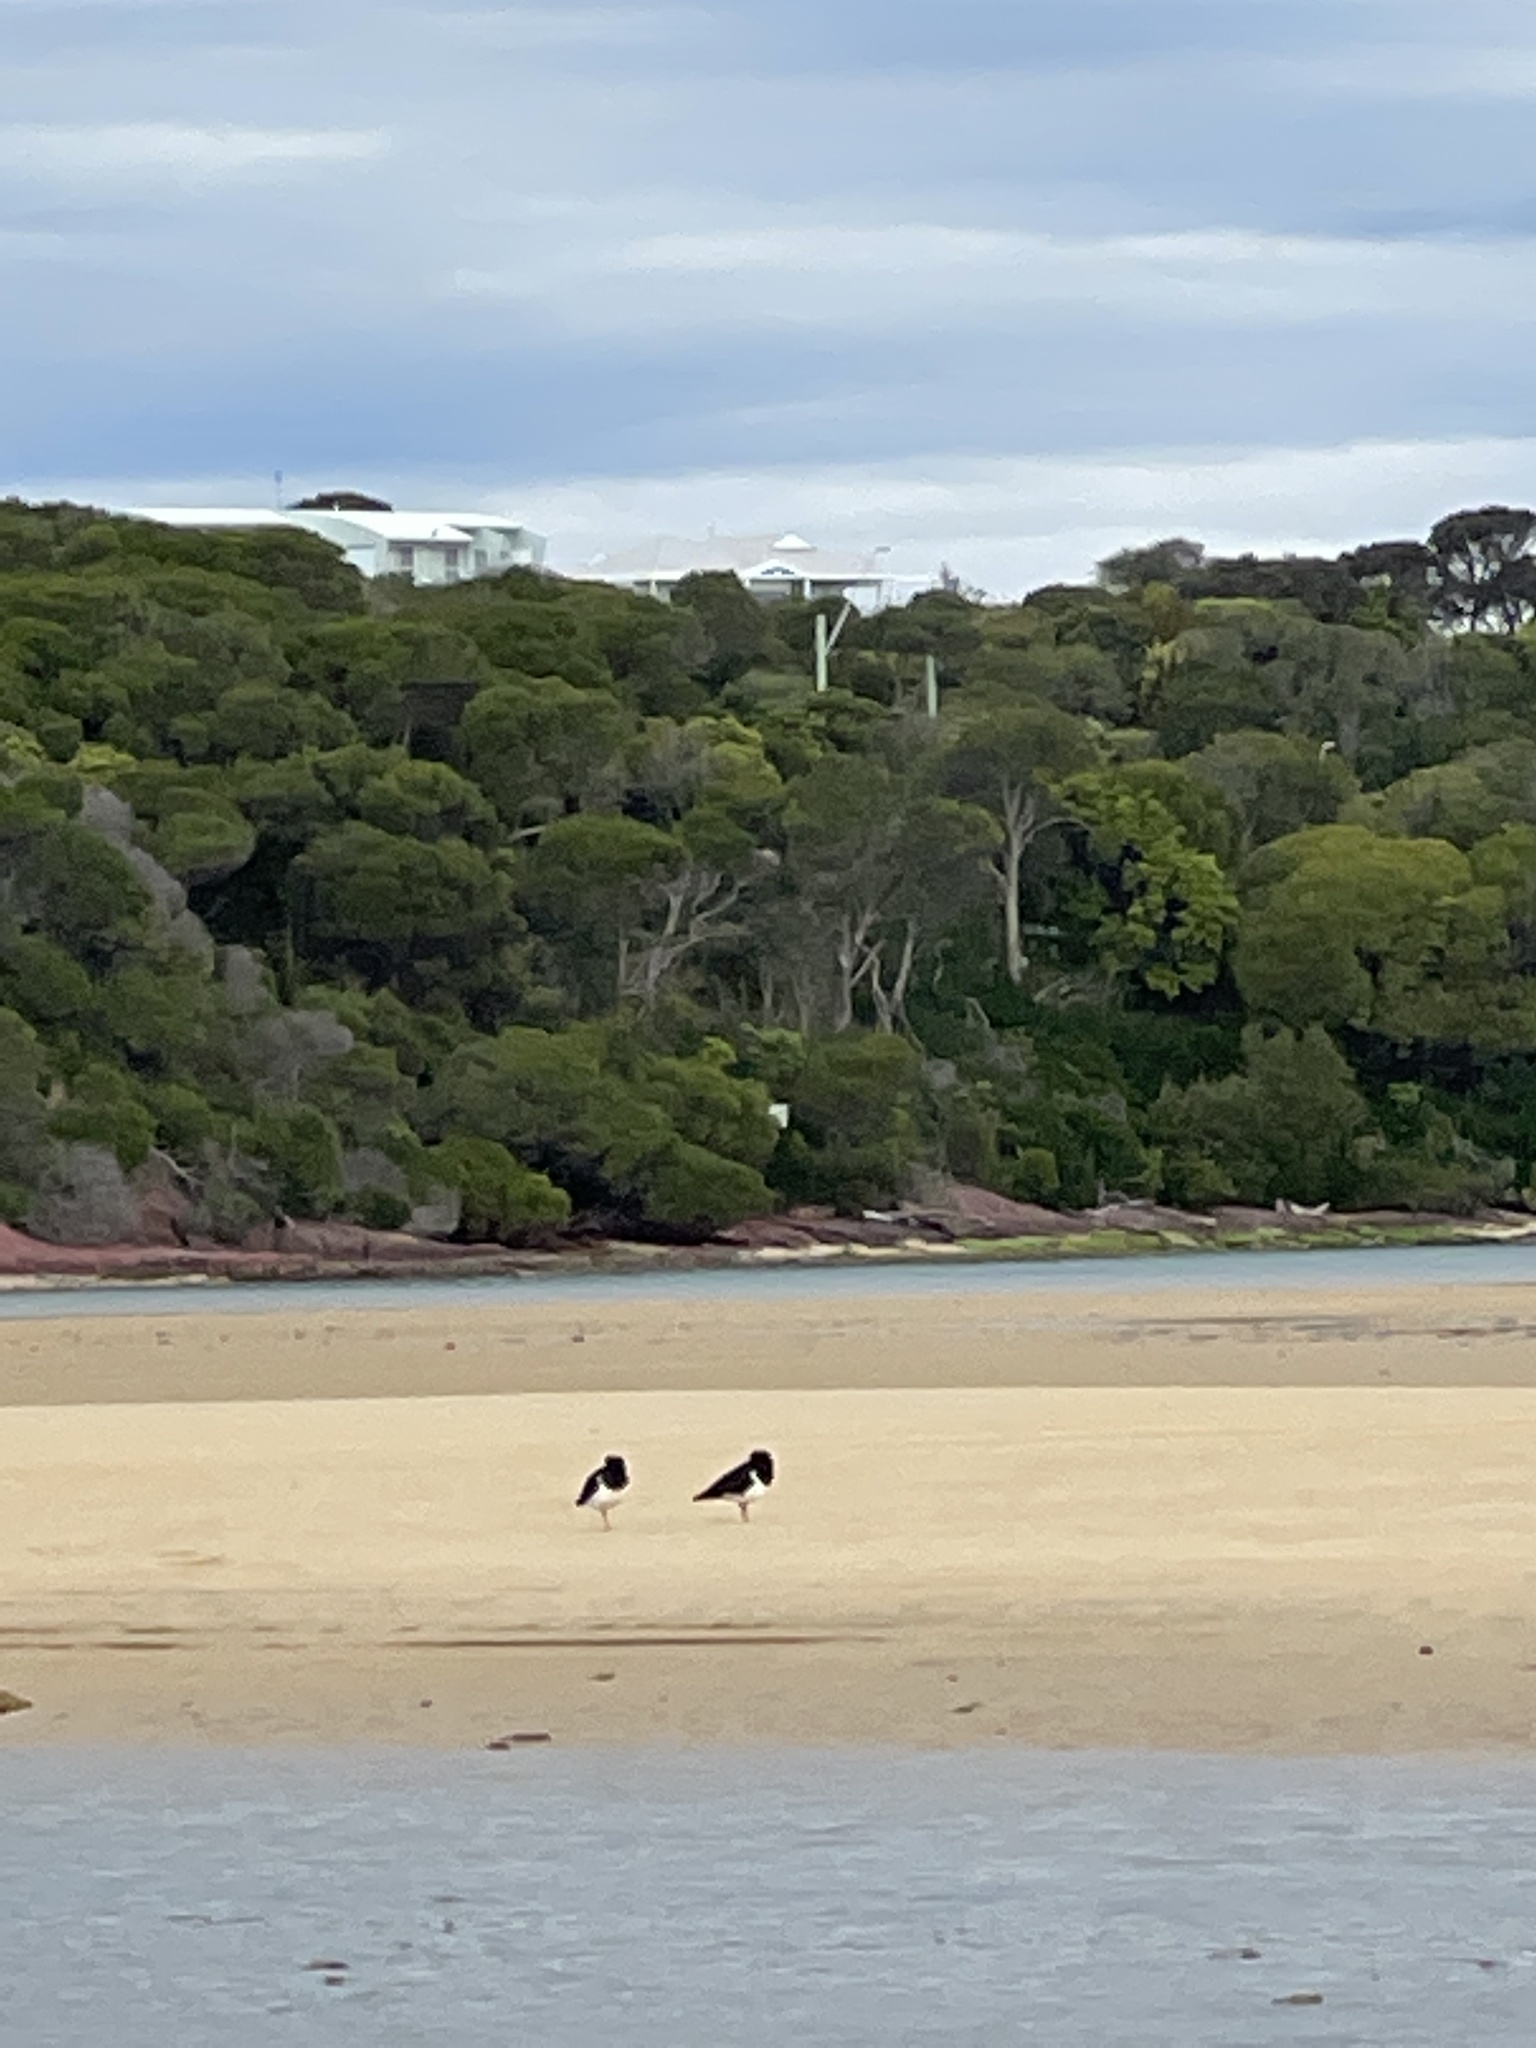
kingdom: Animalia
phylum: Chordata
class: Aves
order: Charadriiformes
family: Haematopodidae
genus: Haematopus
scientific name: Haematopus longirostris
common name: Pied oystercatcher
